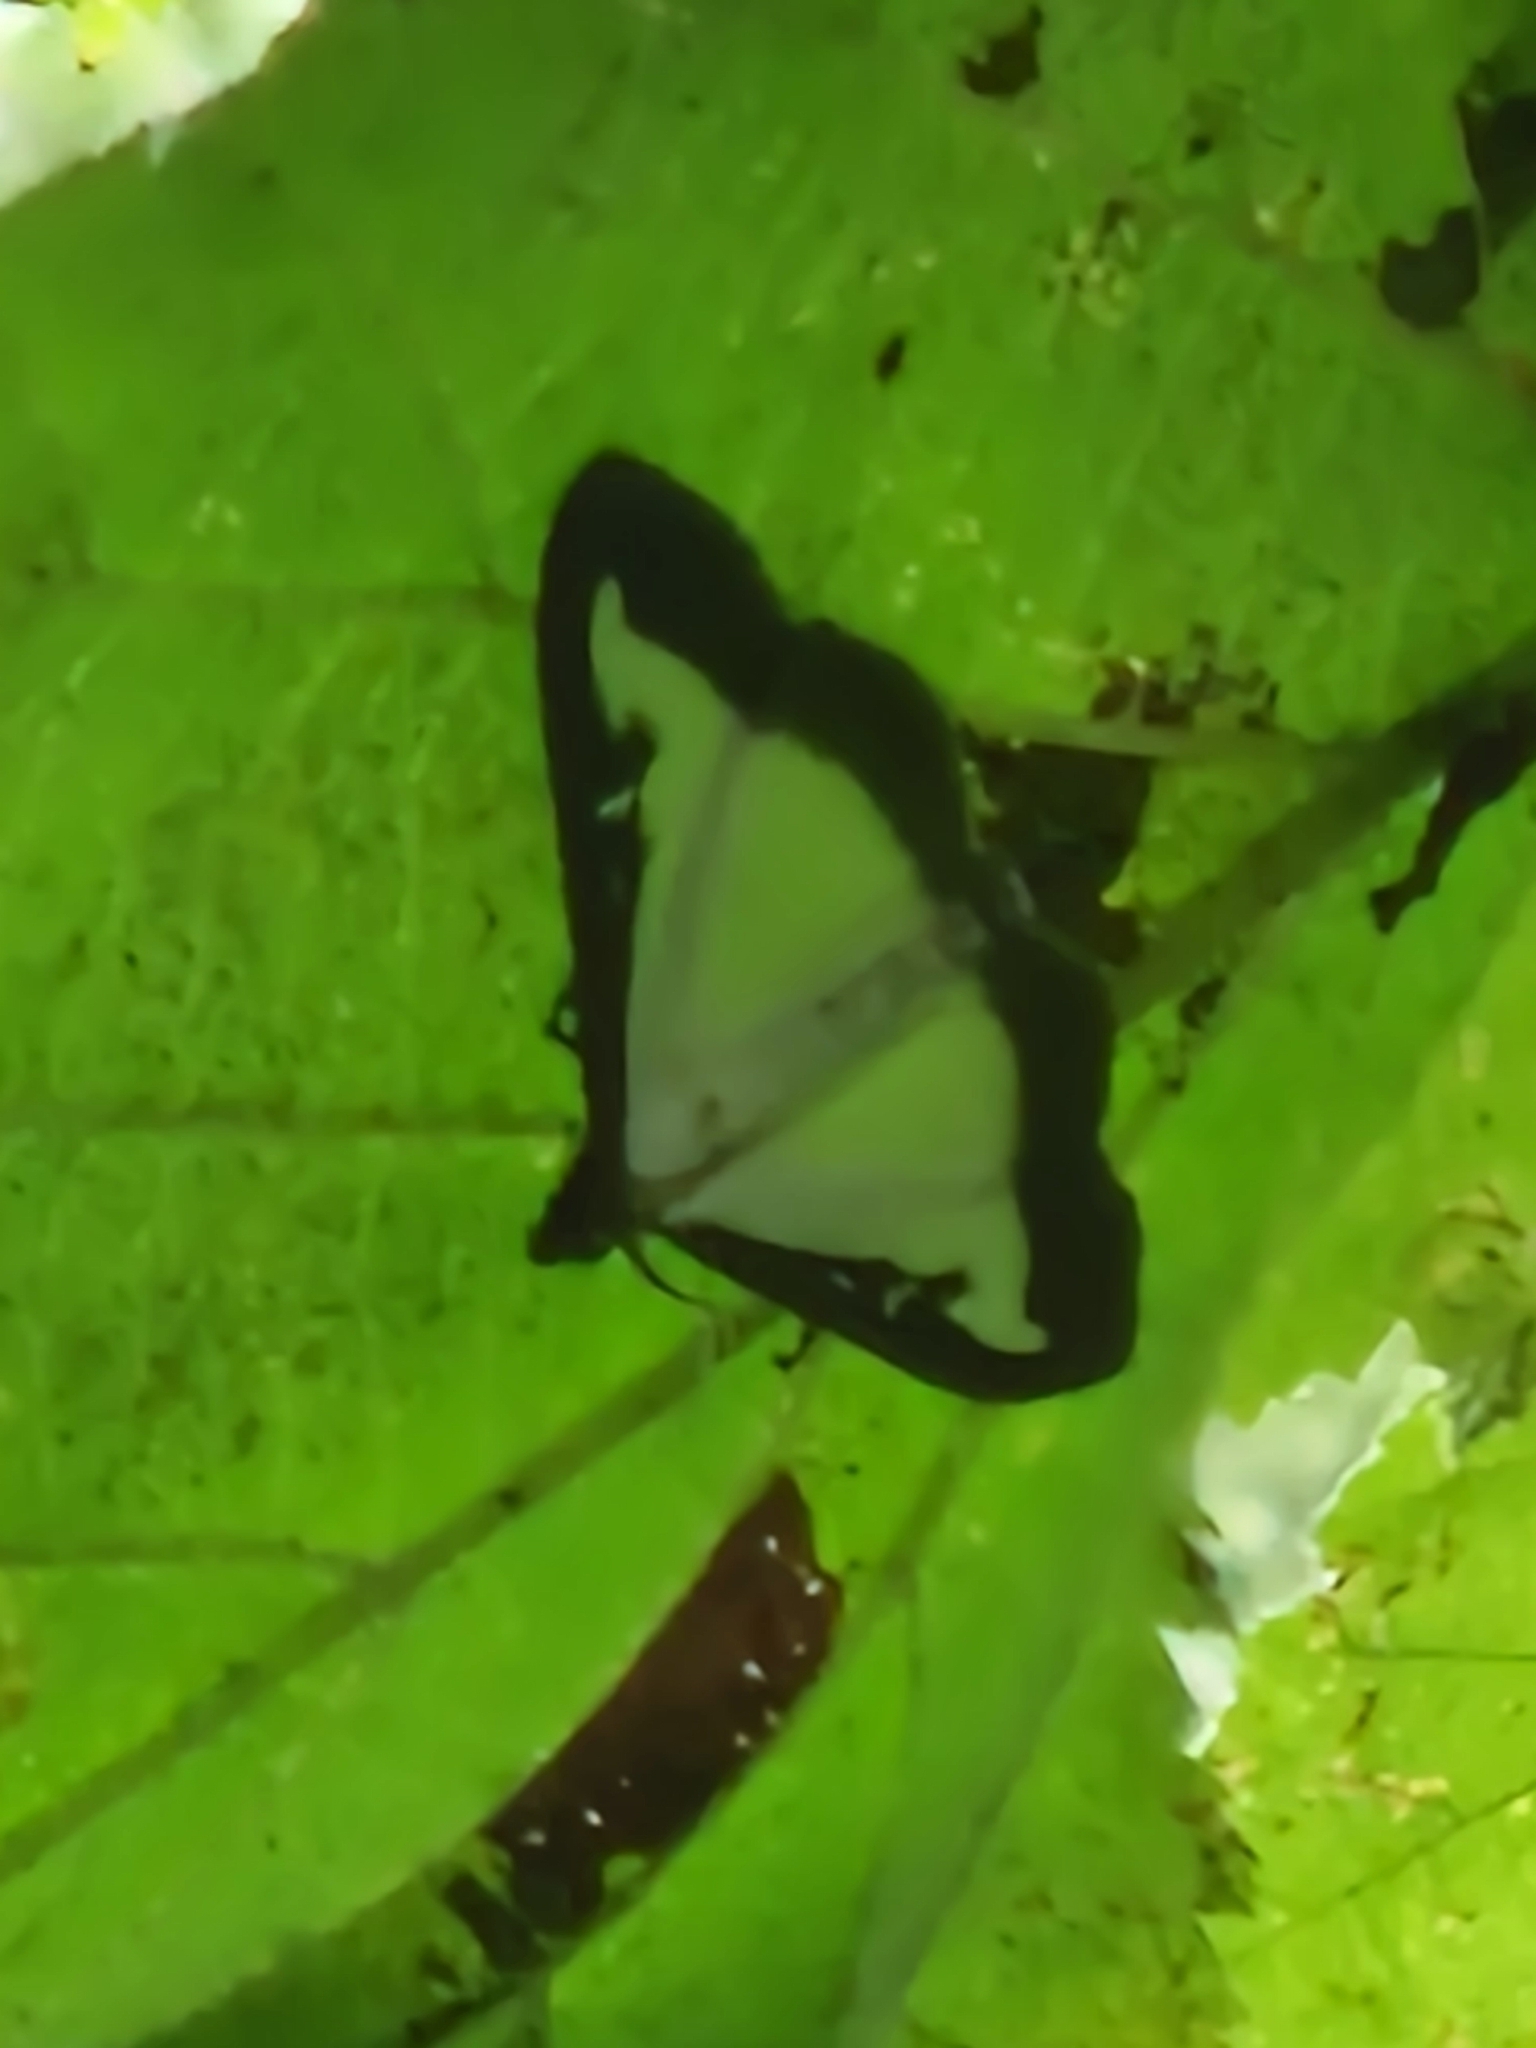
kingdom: Animalia
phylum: Arthropoda
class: Insecta
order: Lepidoptera
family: Crambidae
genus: Cydalima
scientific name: Cydalima perspectalis
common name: Box tree moth
